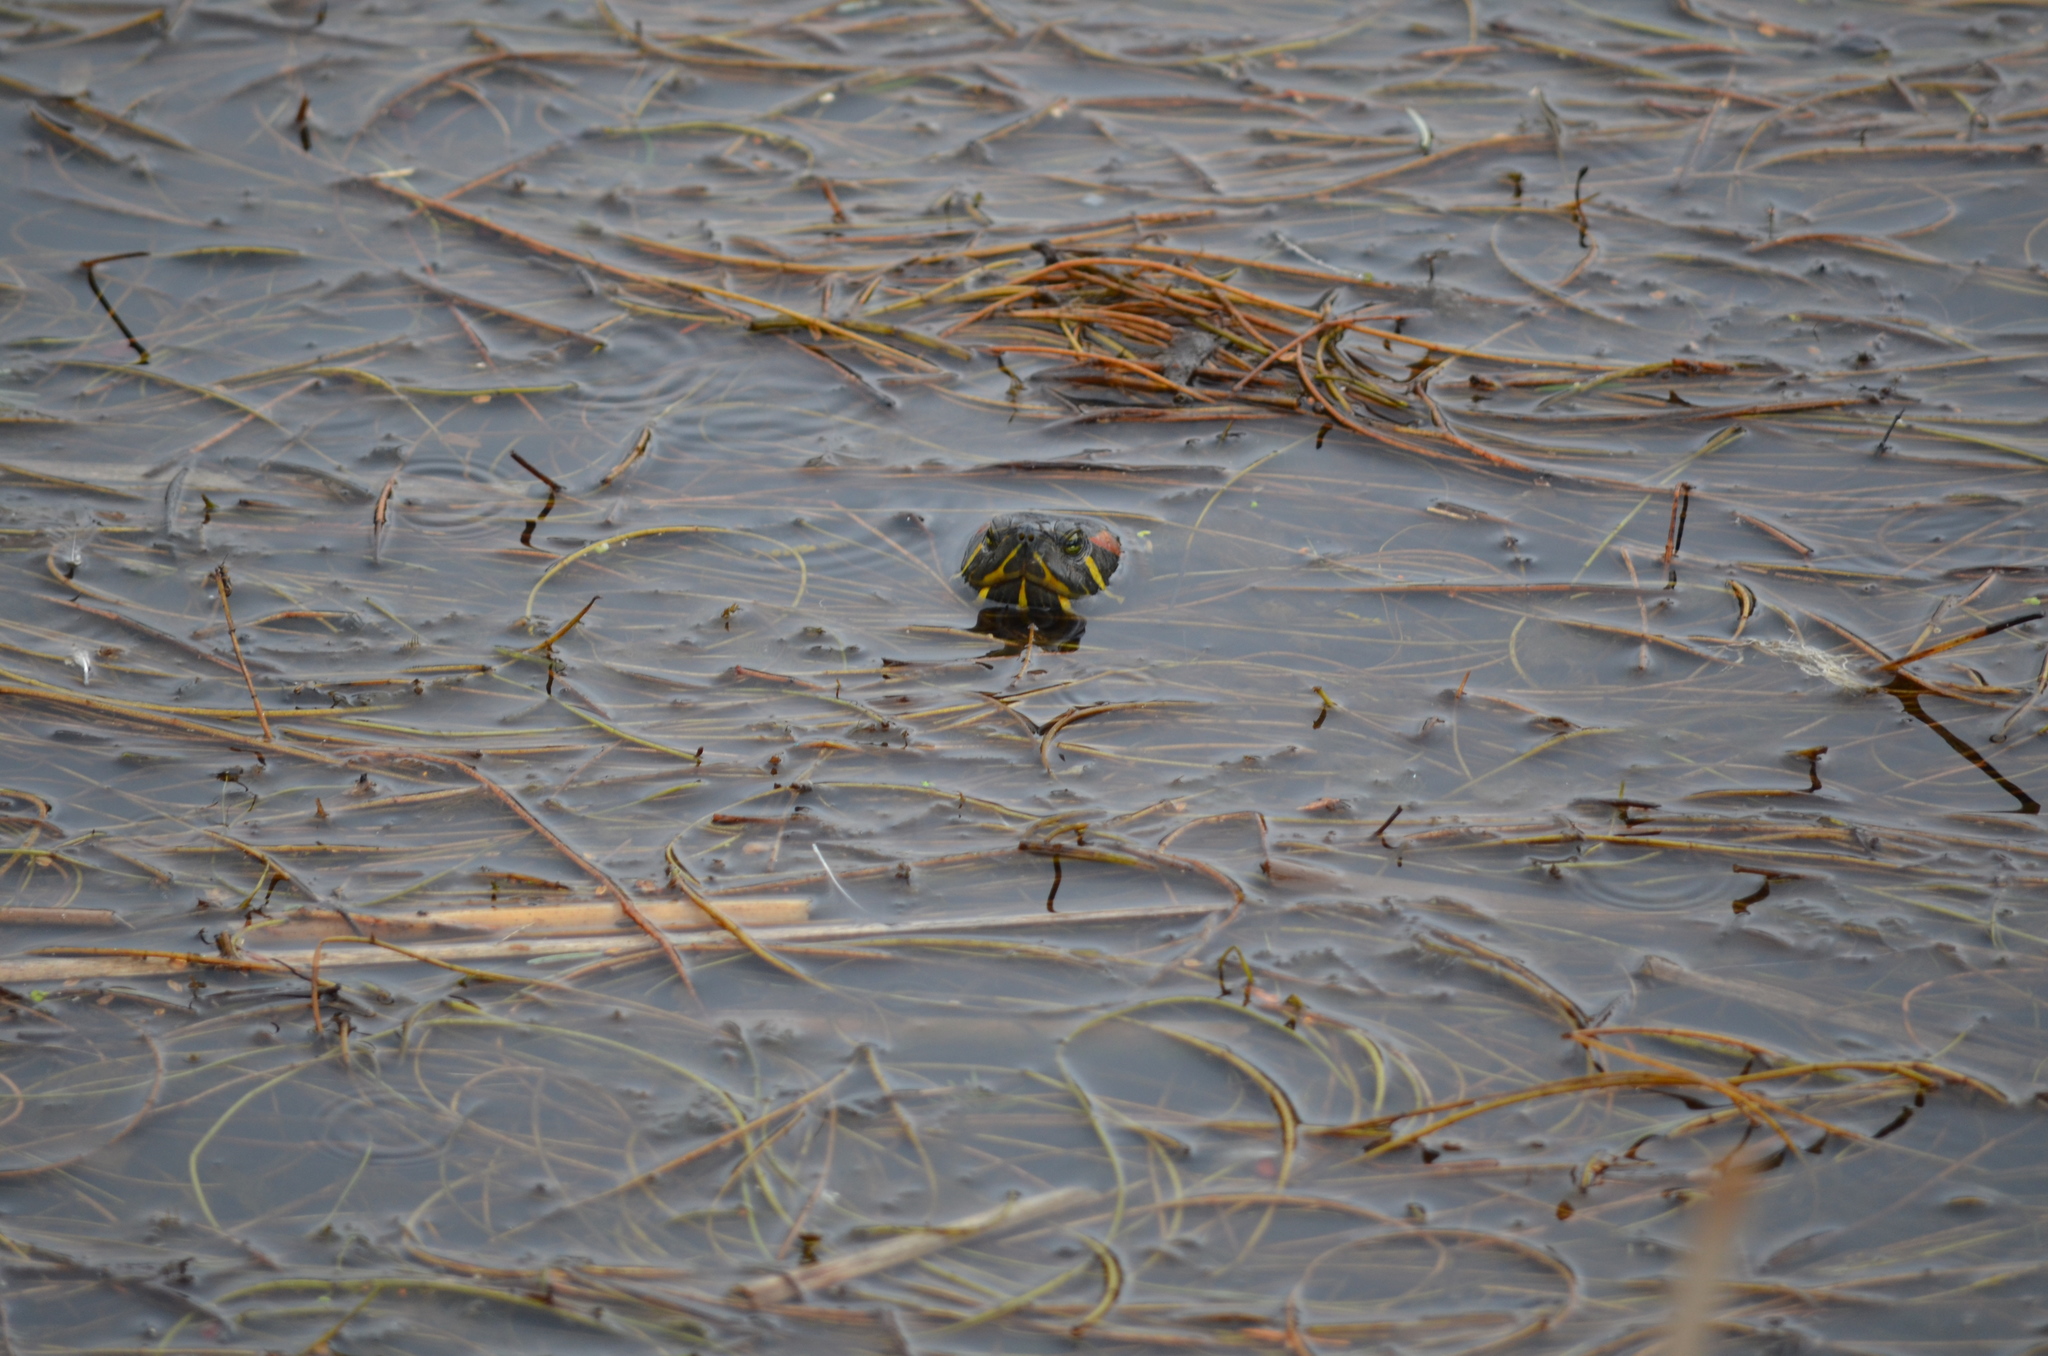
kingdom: Animalia
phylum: Chordata
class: Testudines
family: Emydidae
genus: Trachemys
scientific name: Trachemys scripta
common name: Slider
